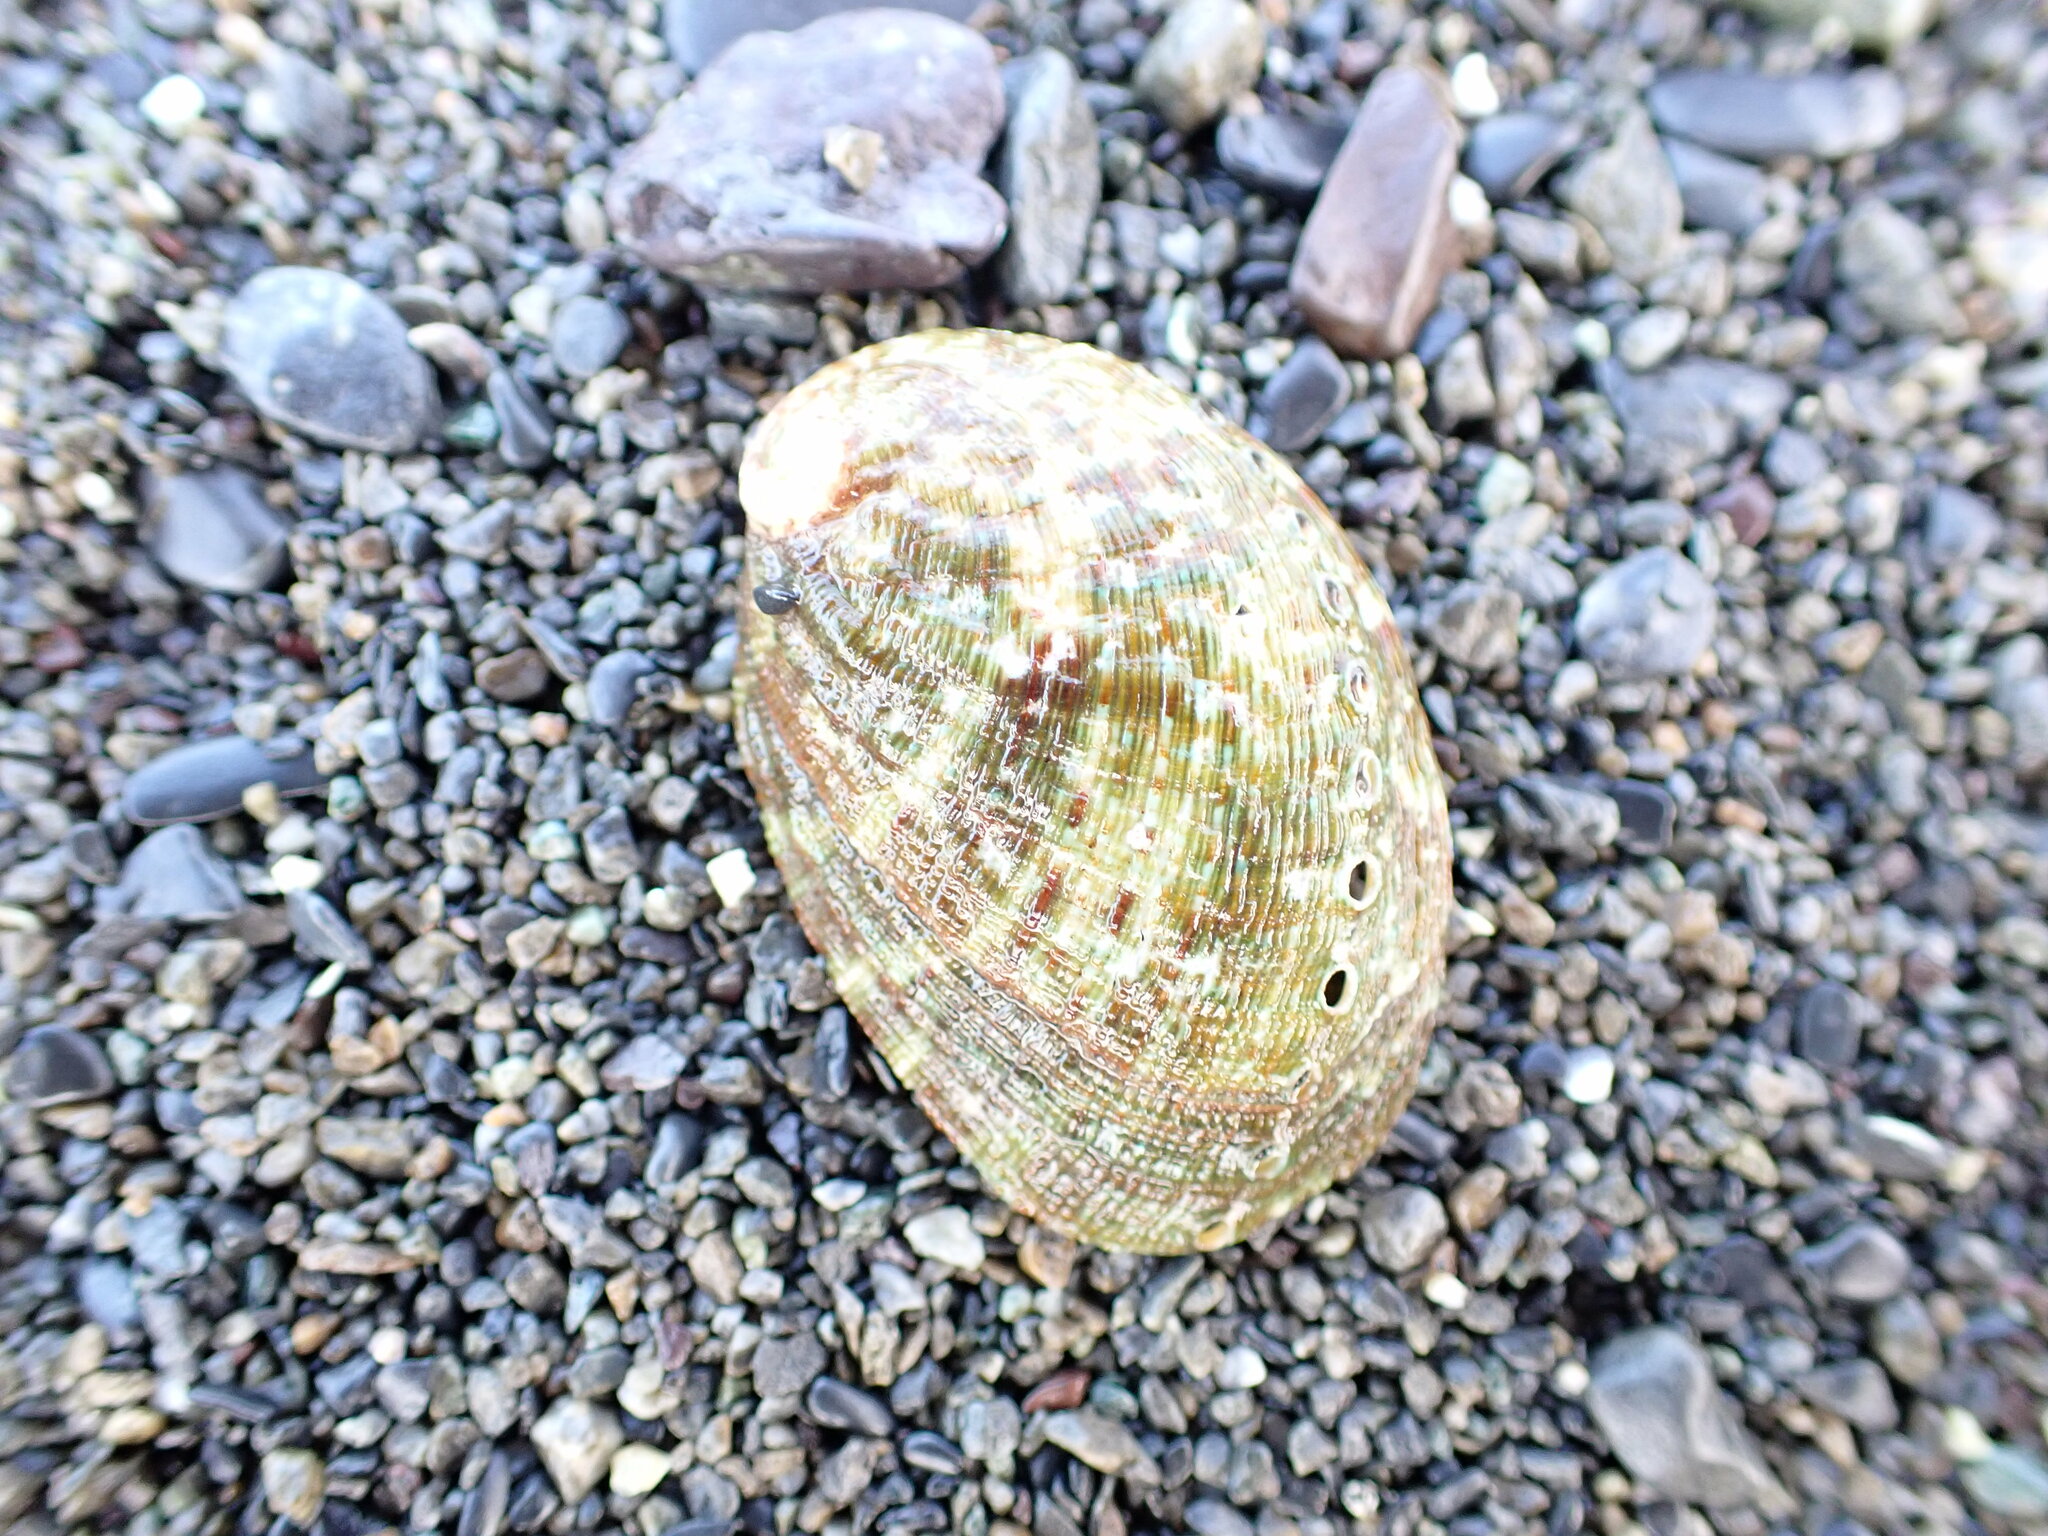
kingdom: Animalia
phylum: Mollusca
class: Gastropoda
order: Lepetellida
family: Haliotidae
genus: Haliotis
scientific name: Haliotis virginea
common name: Whitefoot paua
